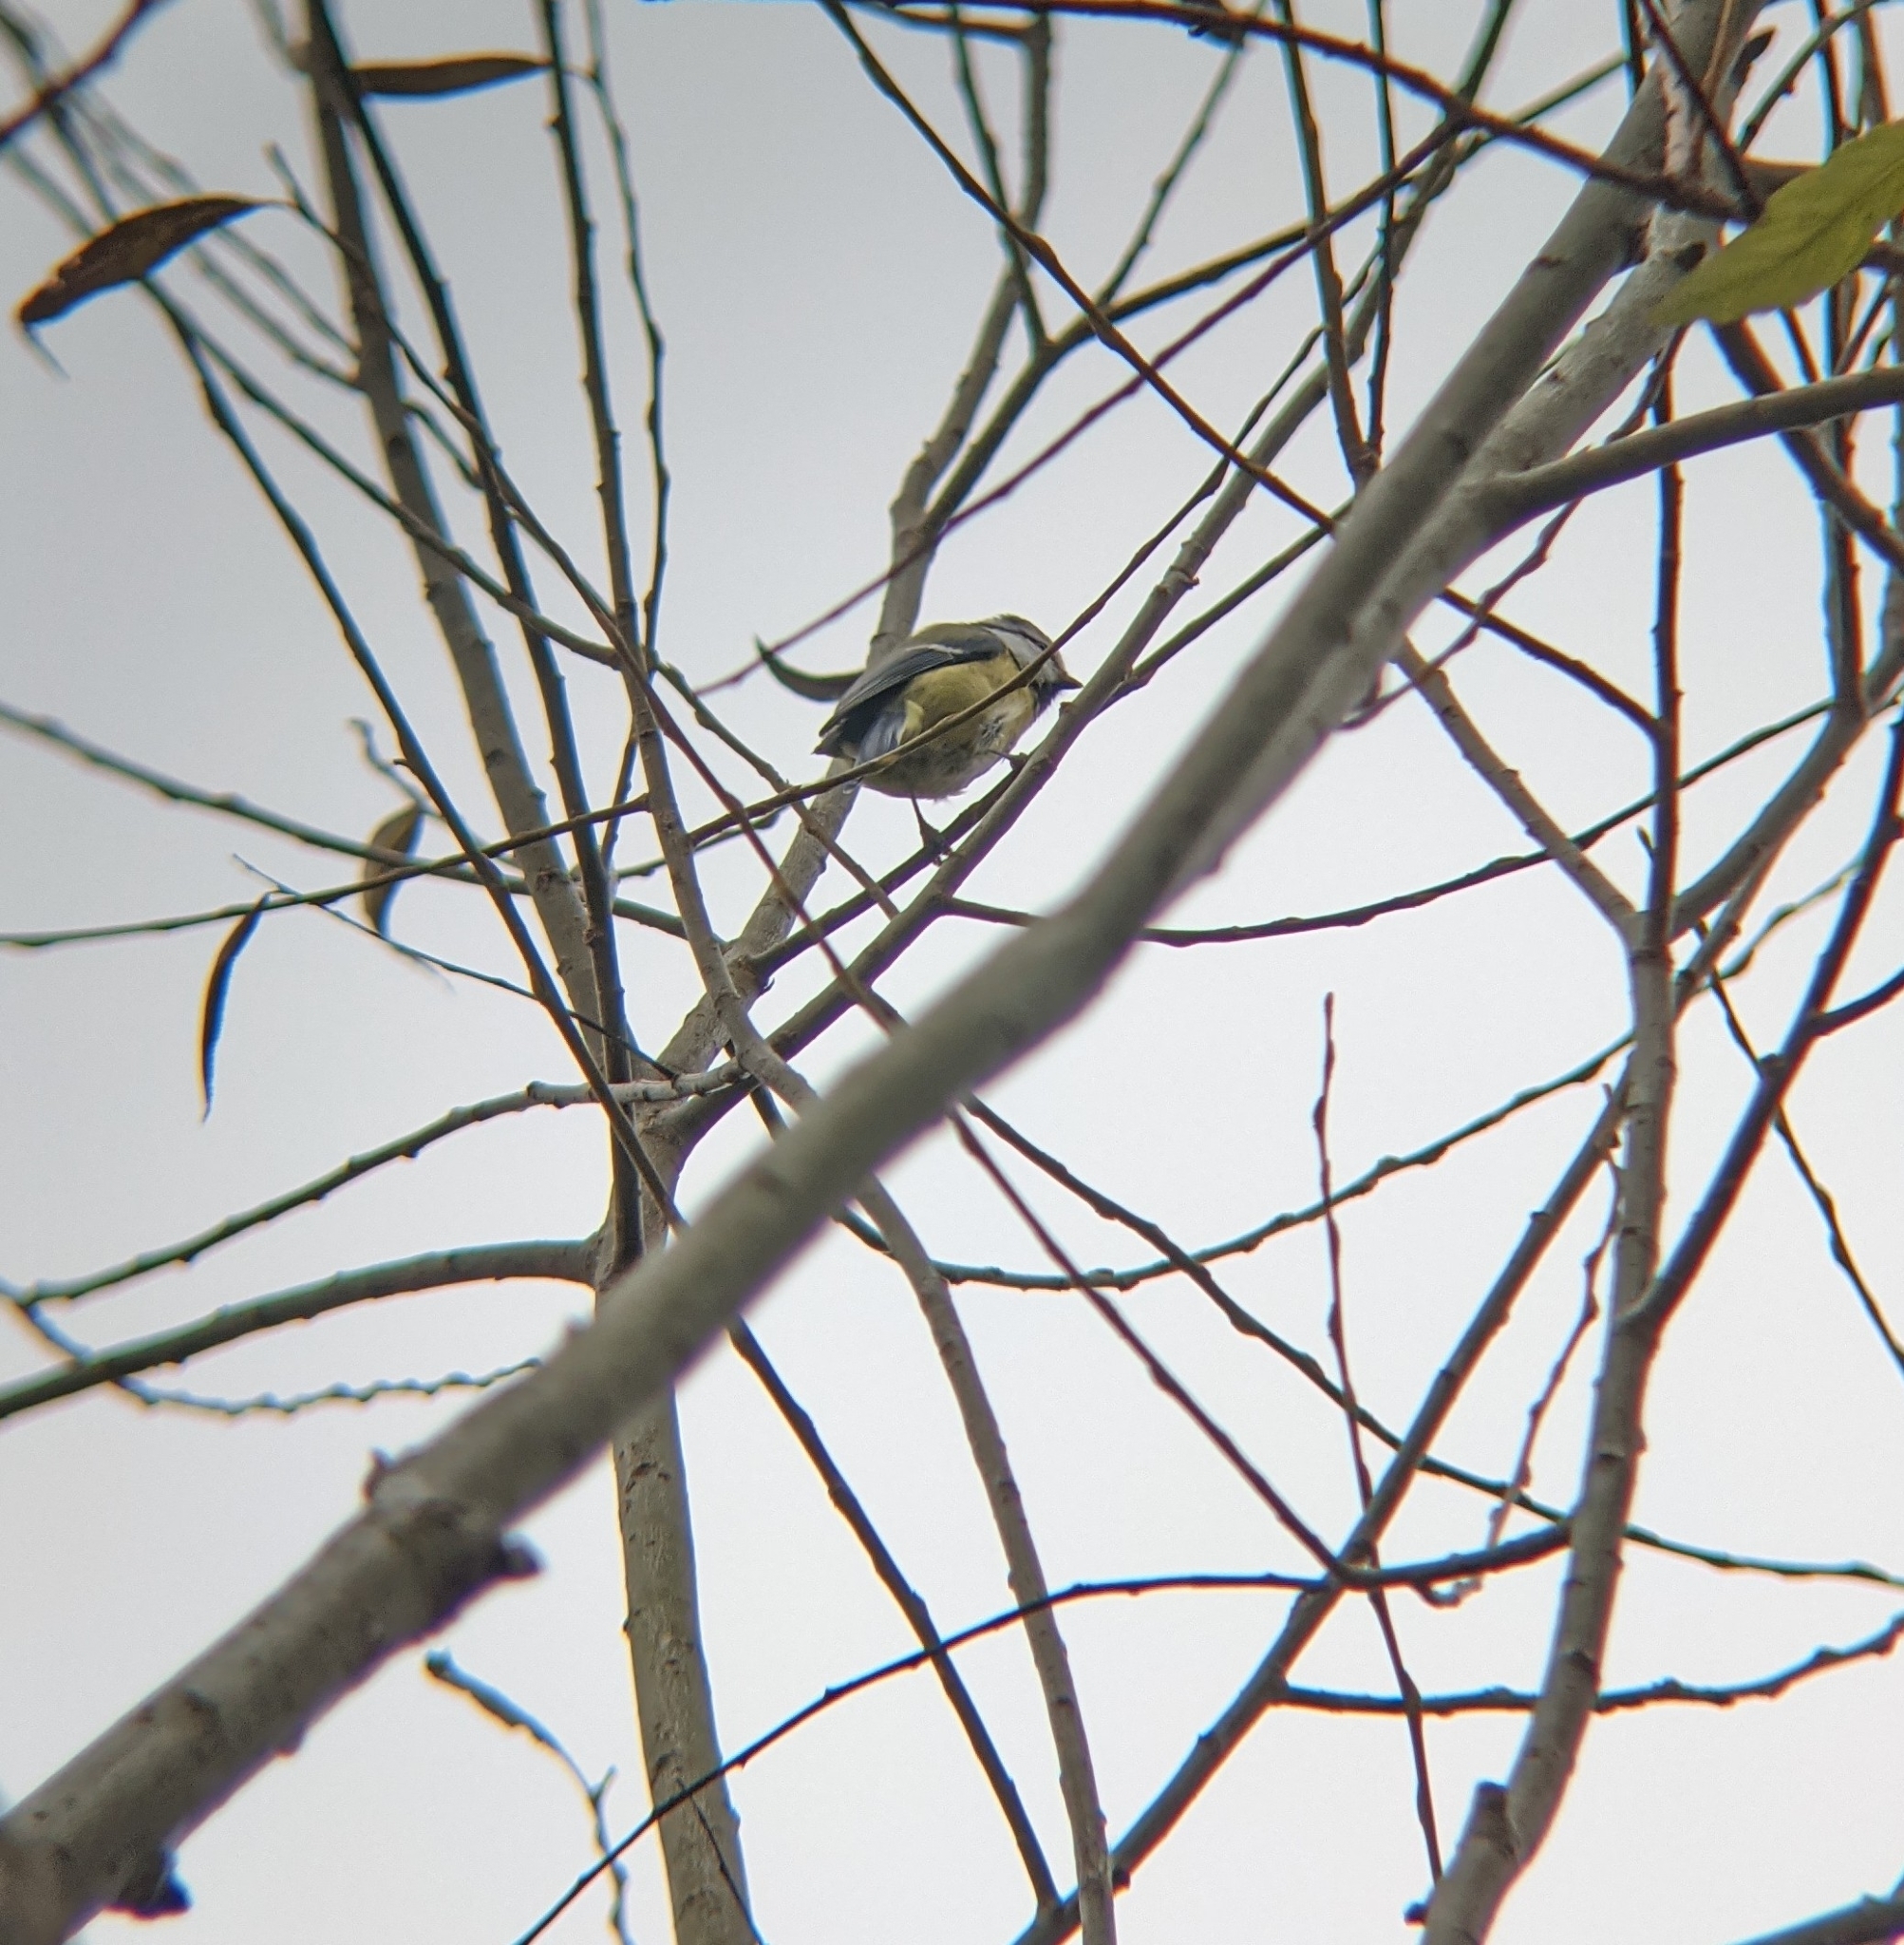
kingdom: Animalia
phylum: Chordata
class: Aves
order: Passeriformes
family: Paridae
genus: Cyanistes
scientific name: Cyanistes caeruleus
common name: Eurasian blue tit
